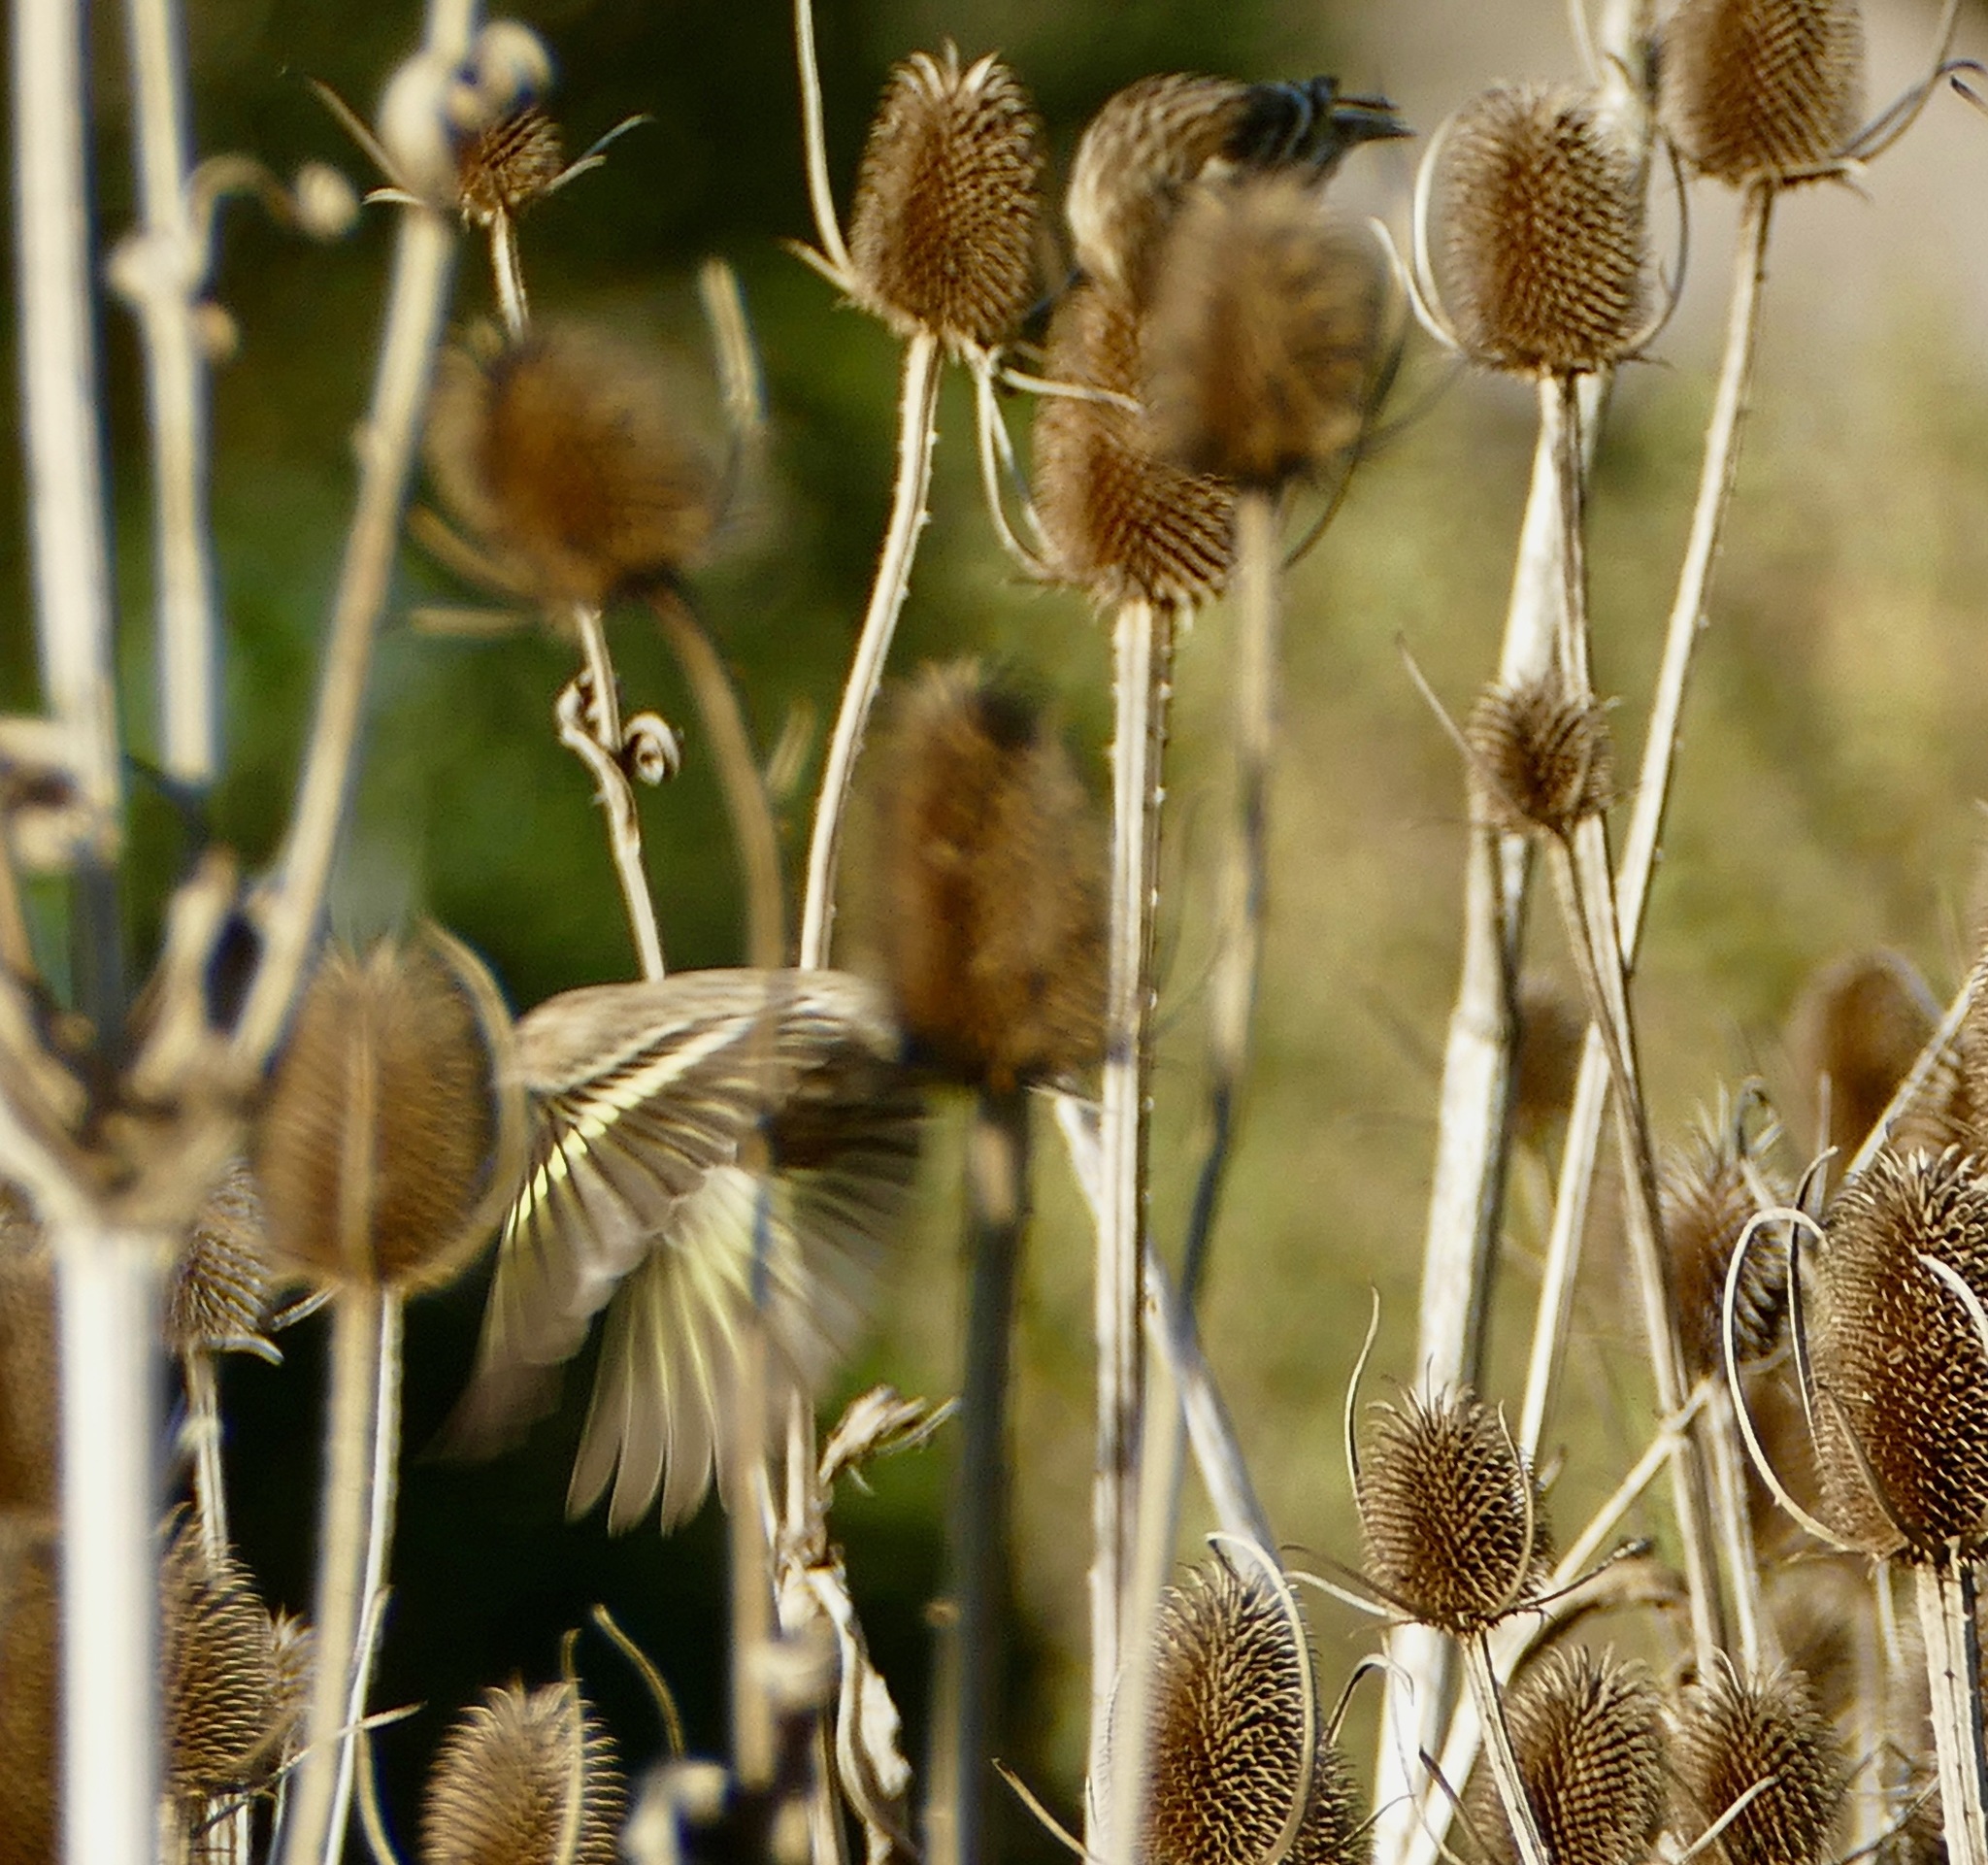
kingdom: Animalia
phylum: Chordata
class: Aves
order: Passeriformes
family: Fringillidae
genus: Spinus
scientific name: Spinus pinus
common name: Pine siskin
